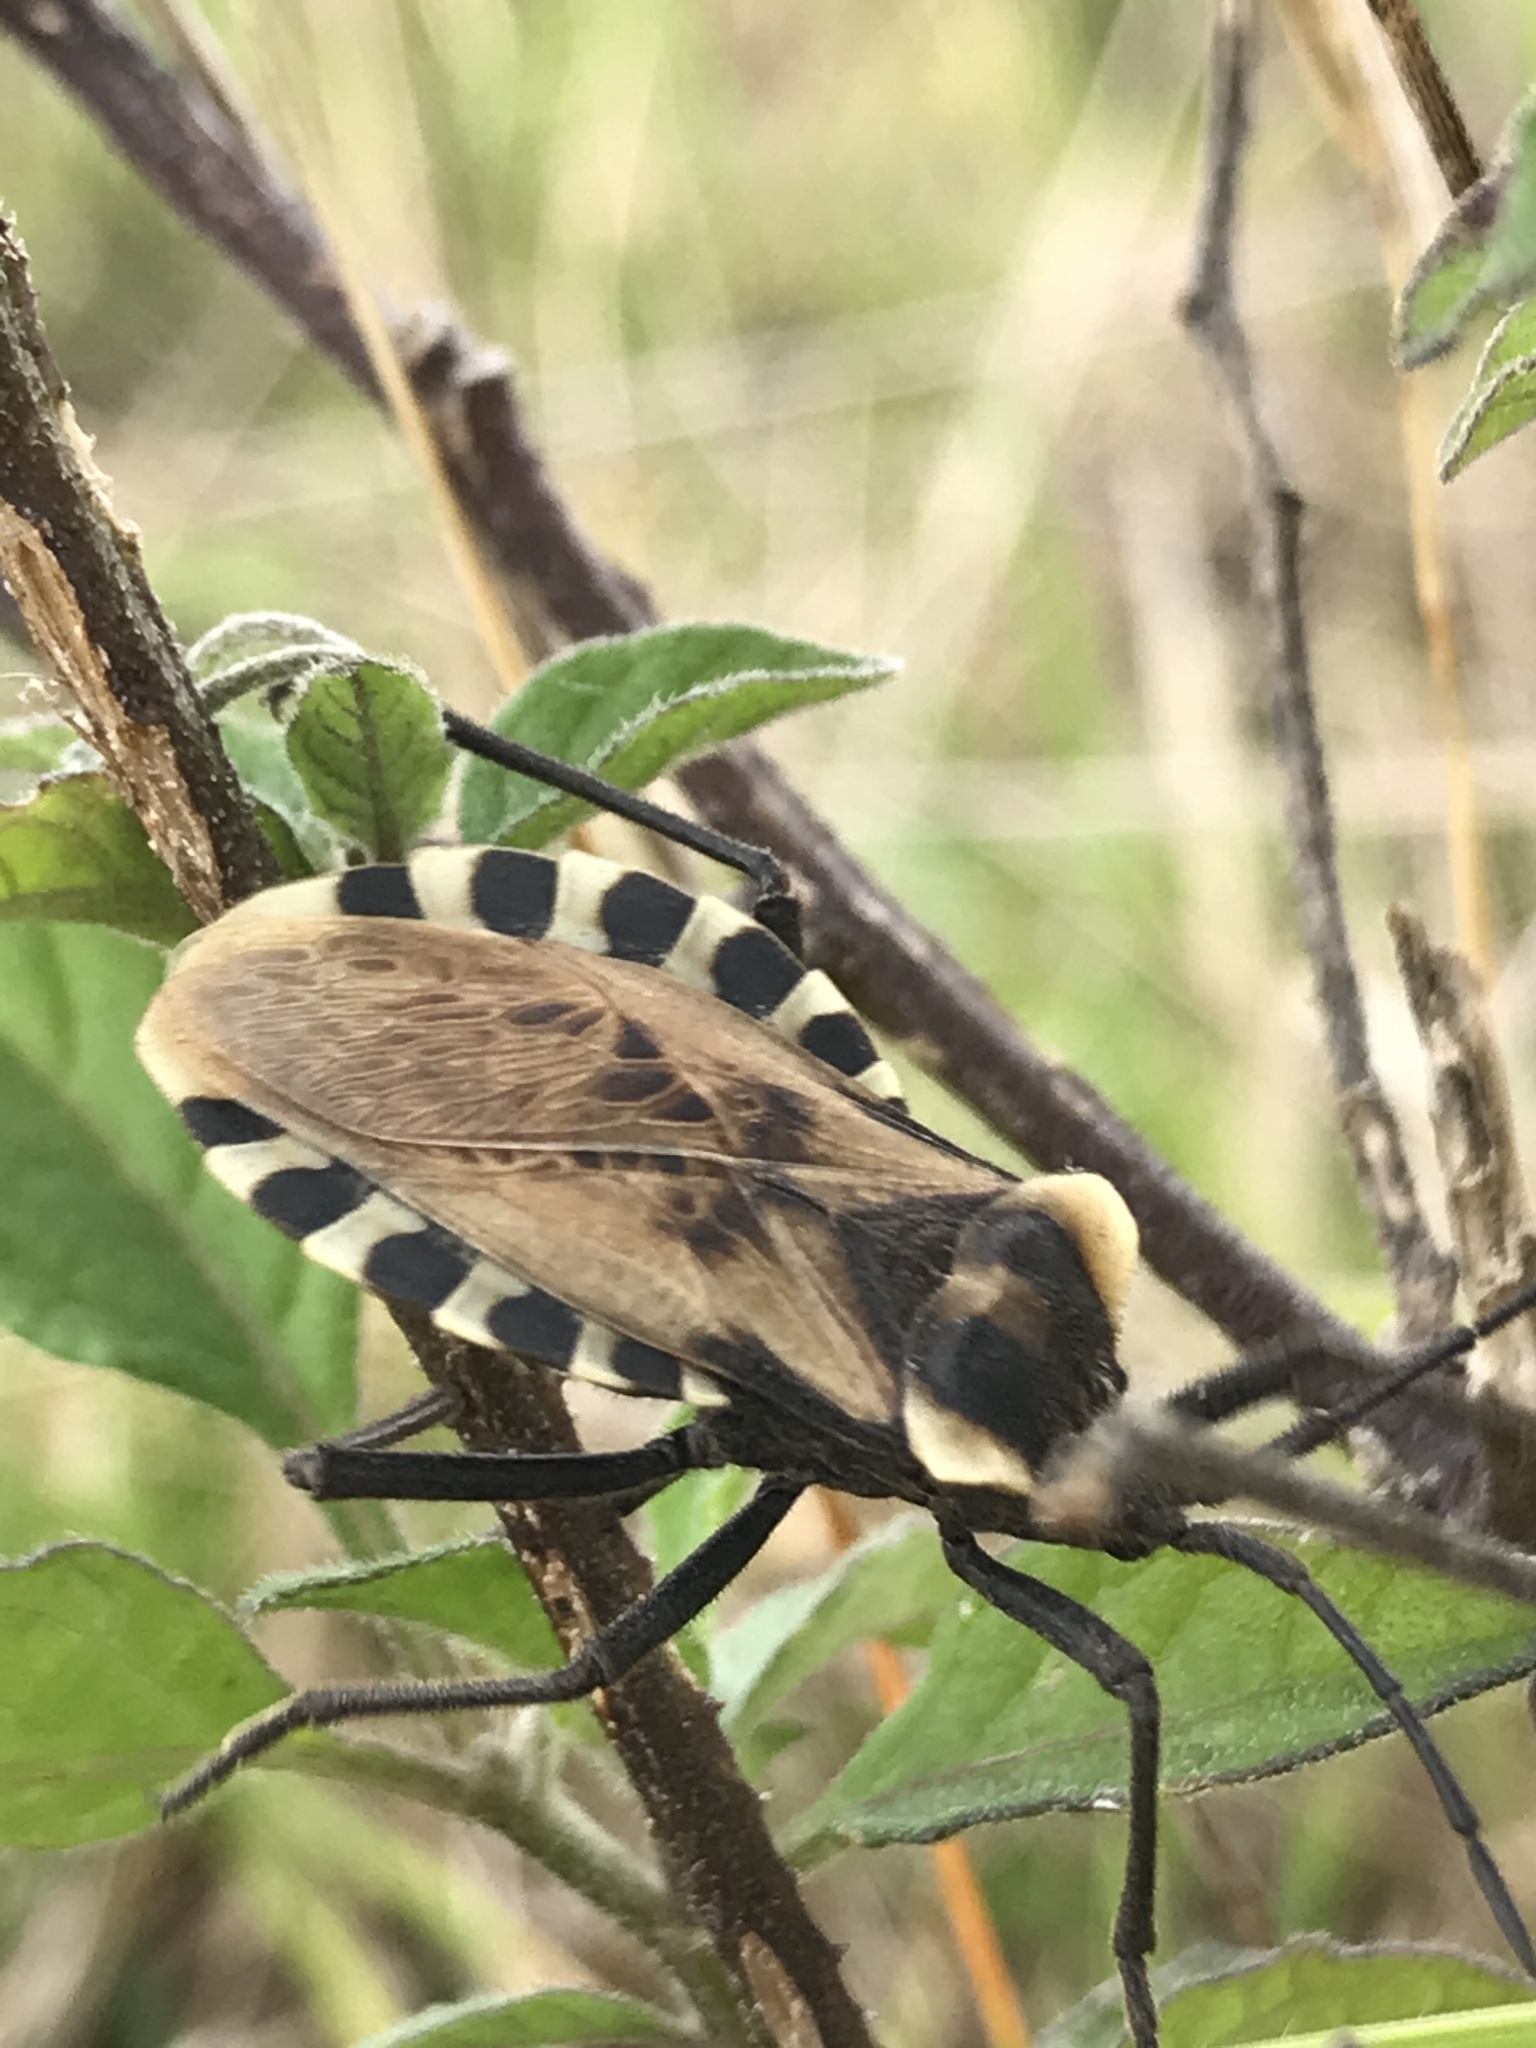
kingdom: Animalia
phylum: Arthropoda
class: Insecta
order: Hemiptera
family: Coreidae
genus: Spartocera
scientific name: Spartocera alternata
